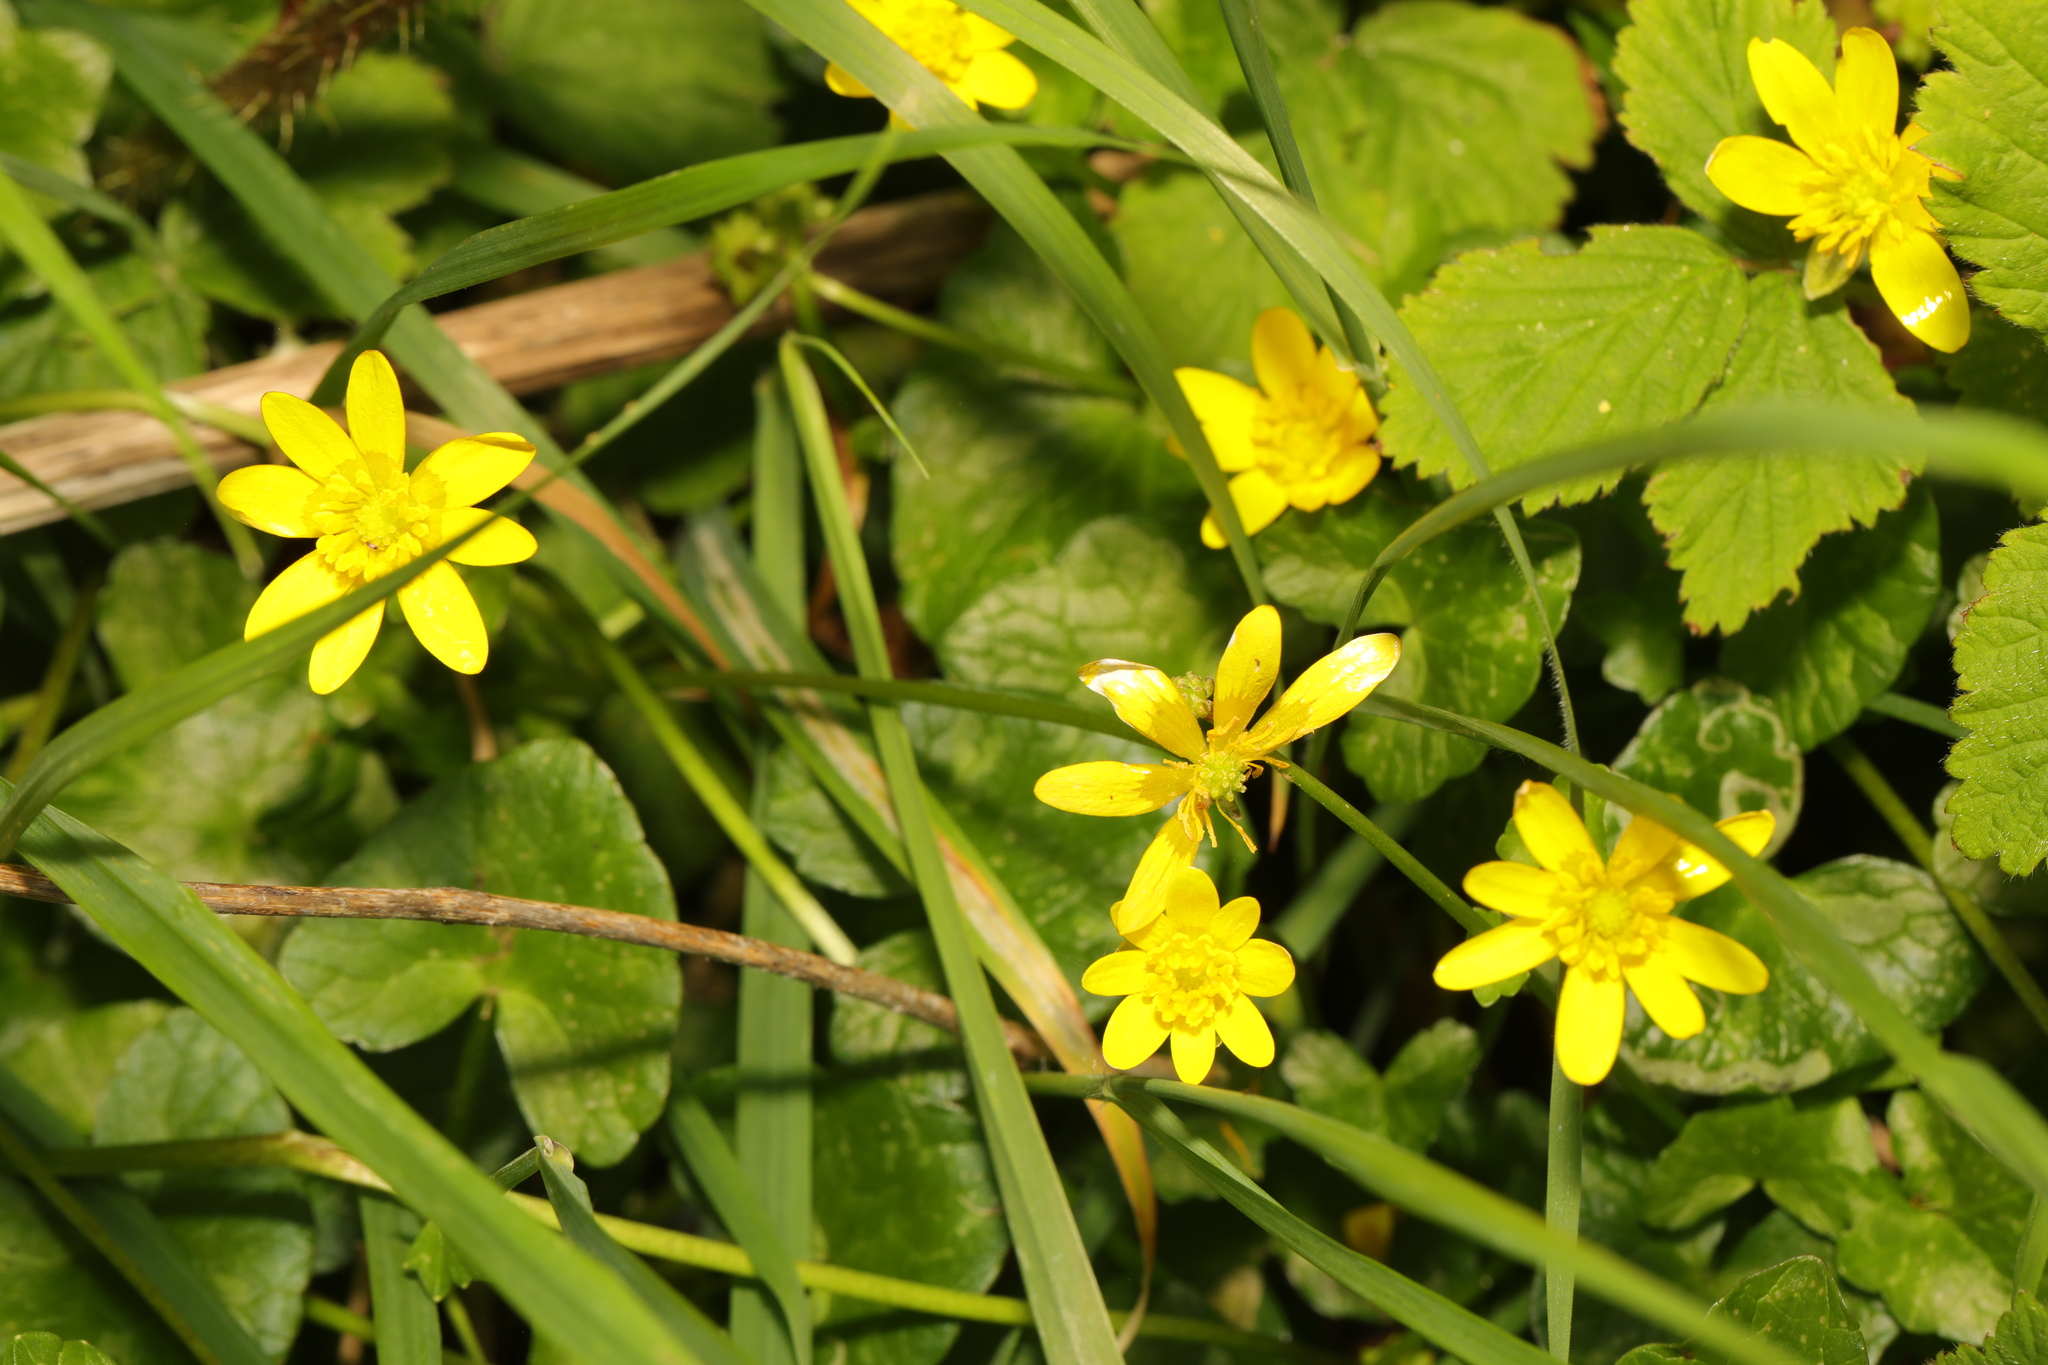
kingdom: Plantae
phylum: Tracheophyta
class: Magnoliopsida
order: Ranunculales
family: Ranunculaceae
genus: Ficaria
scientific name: Ficaria verna
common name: Lesser celandine
